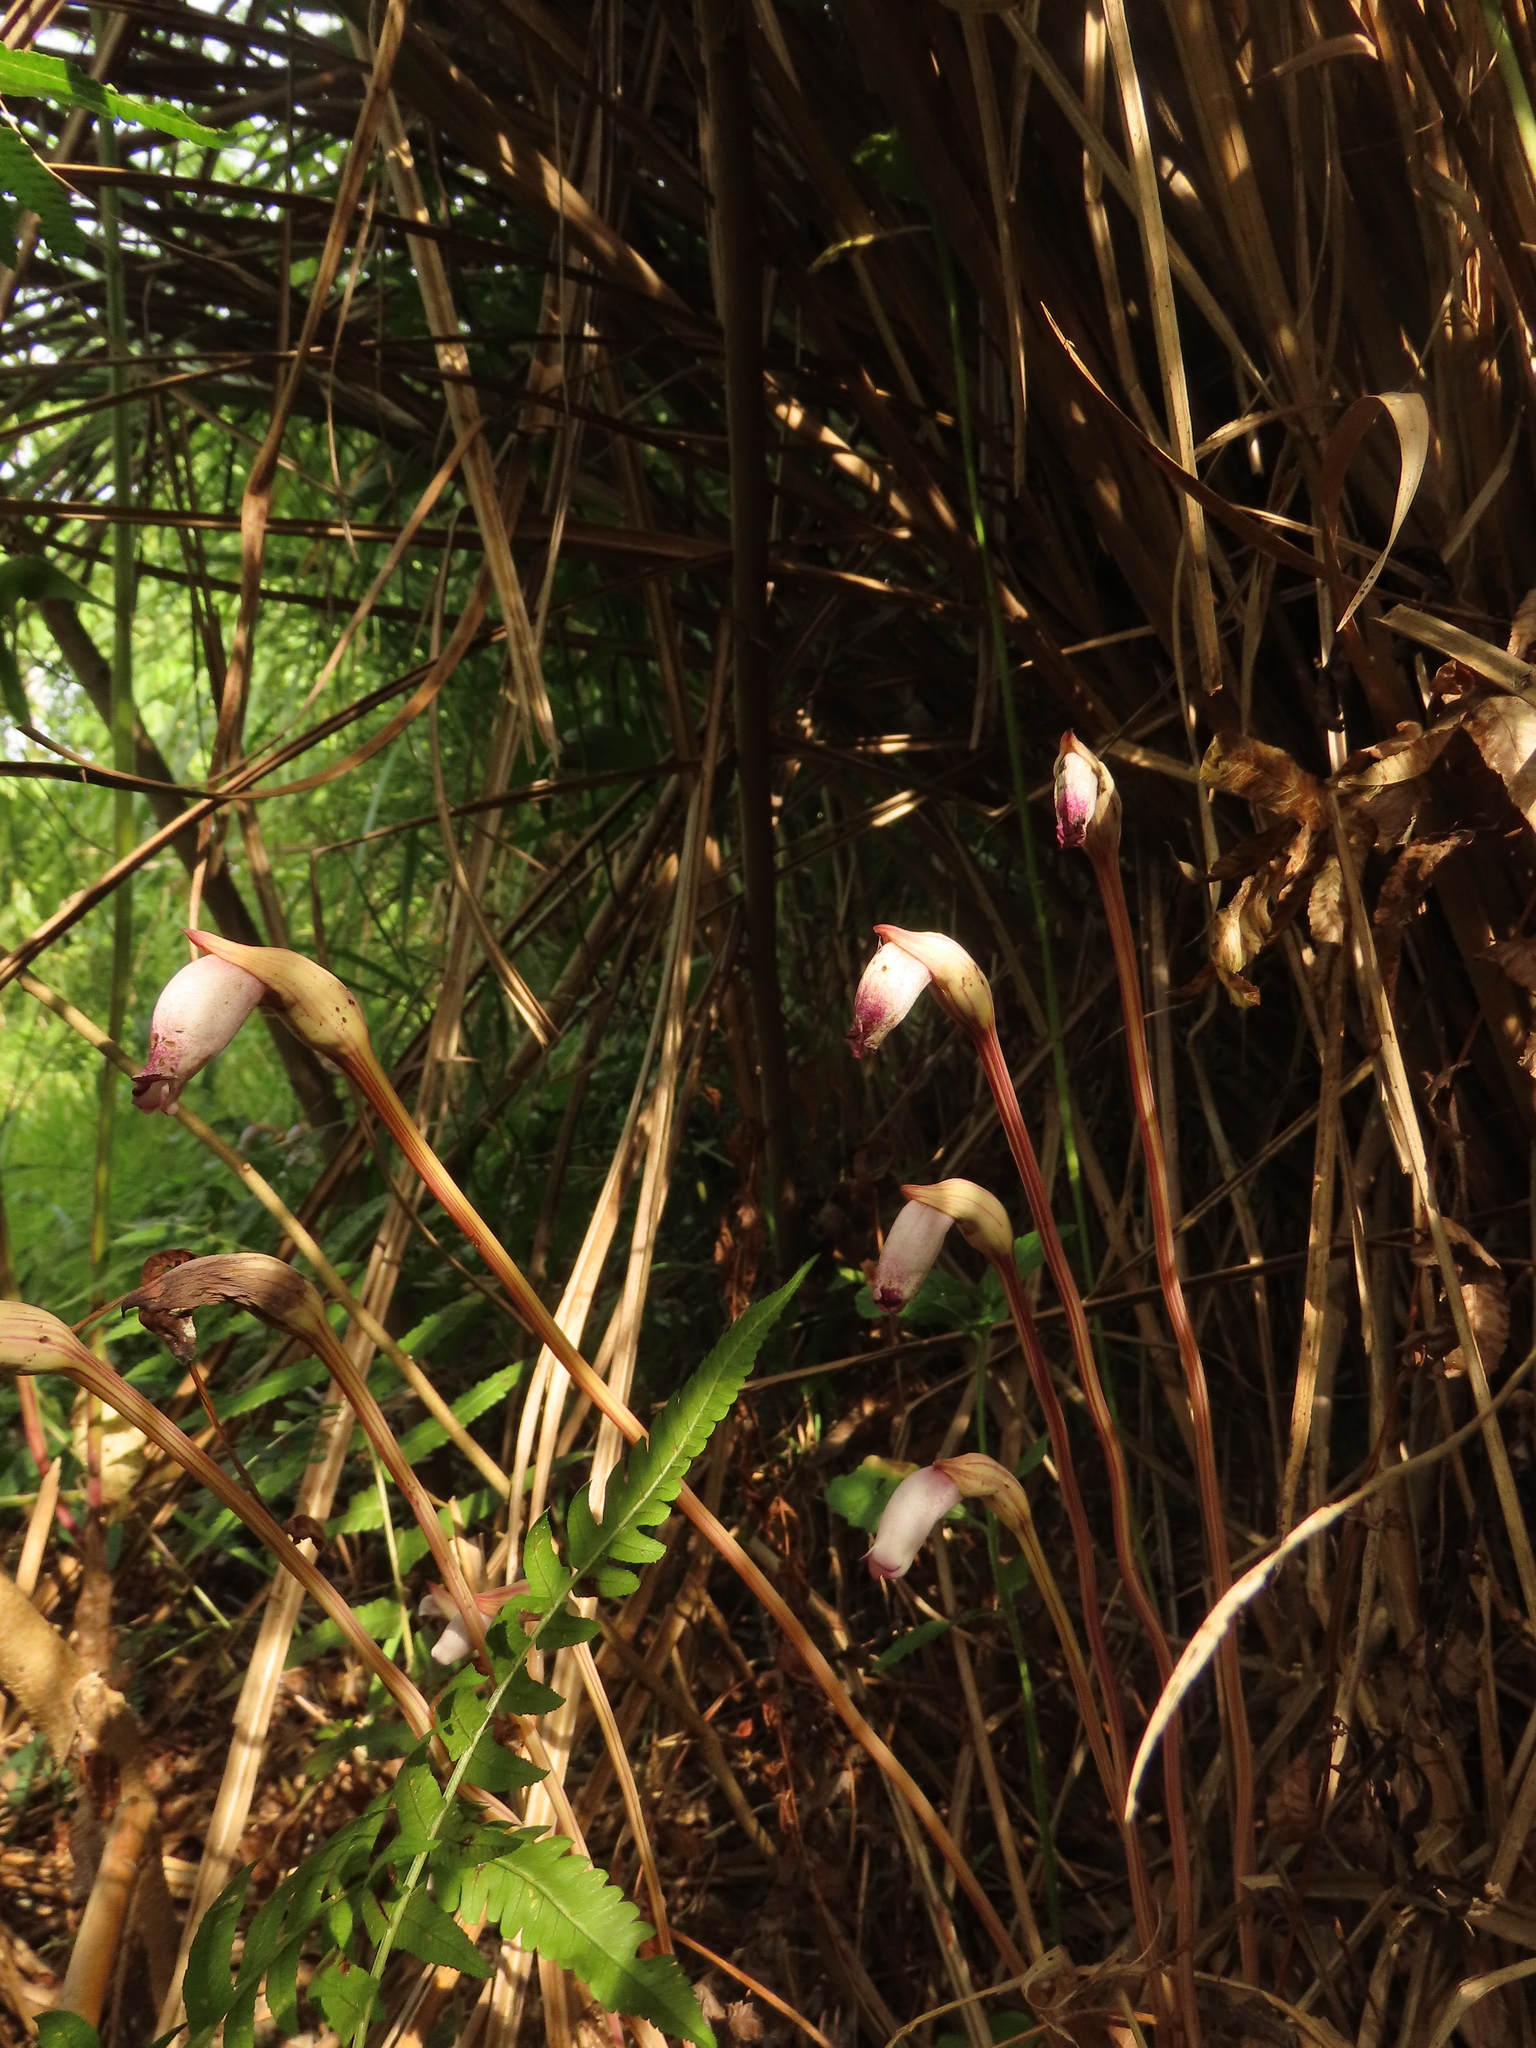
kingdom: Plantae
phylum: Tracheophyta
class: Magnoliopsida
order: Lamiales
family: Orobanchaceae
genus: Aeginetia
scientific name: Aeginetia indica
